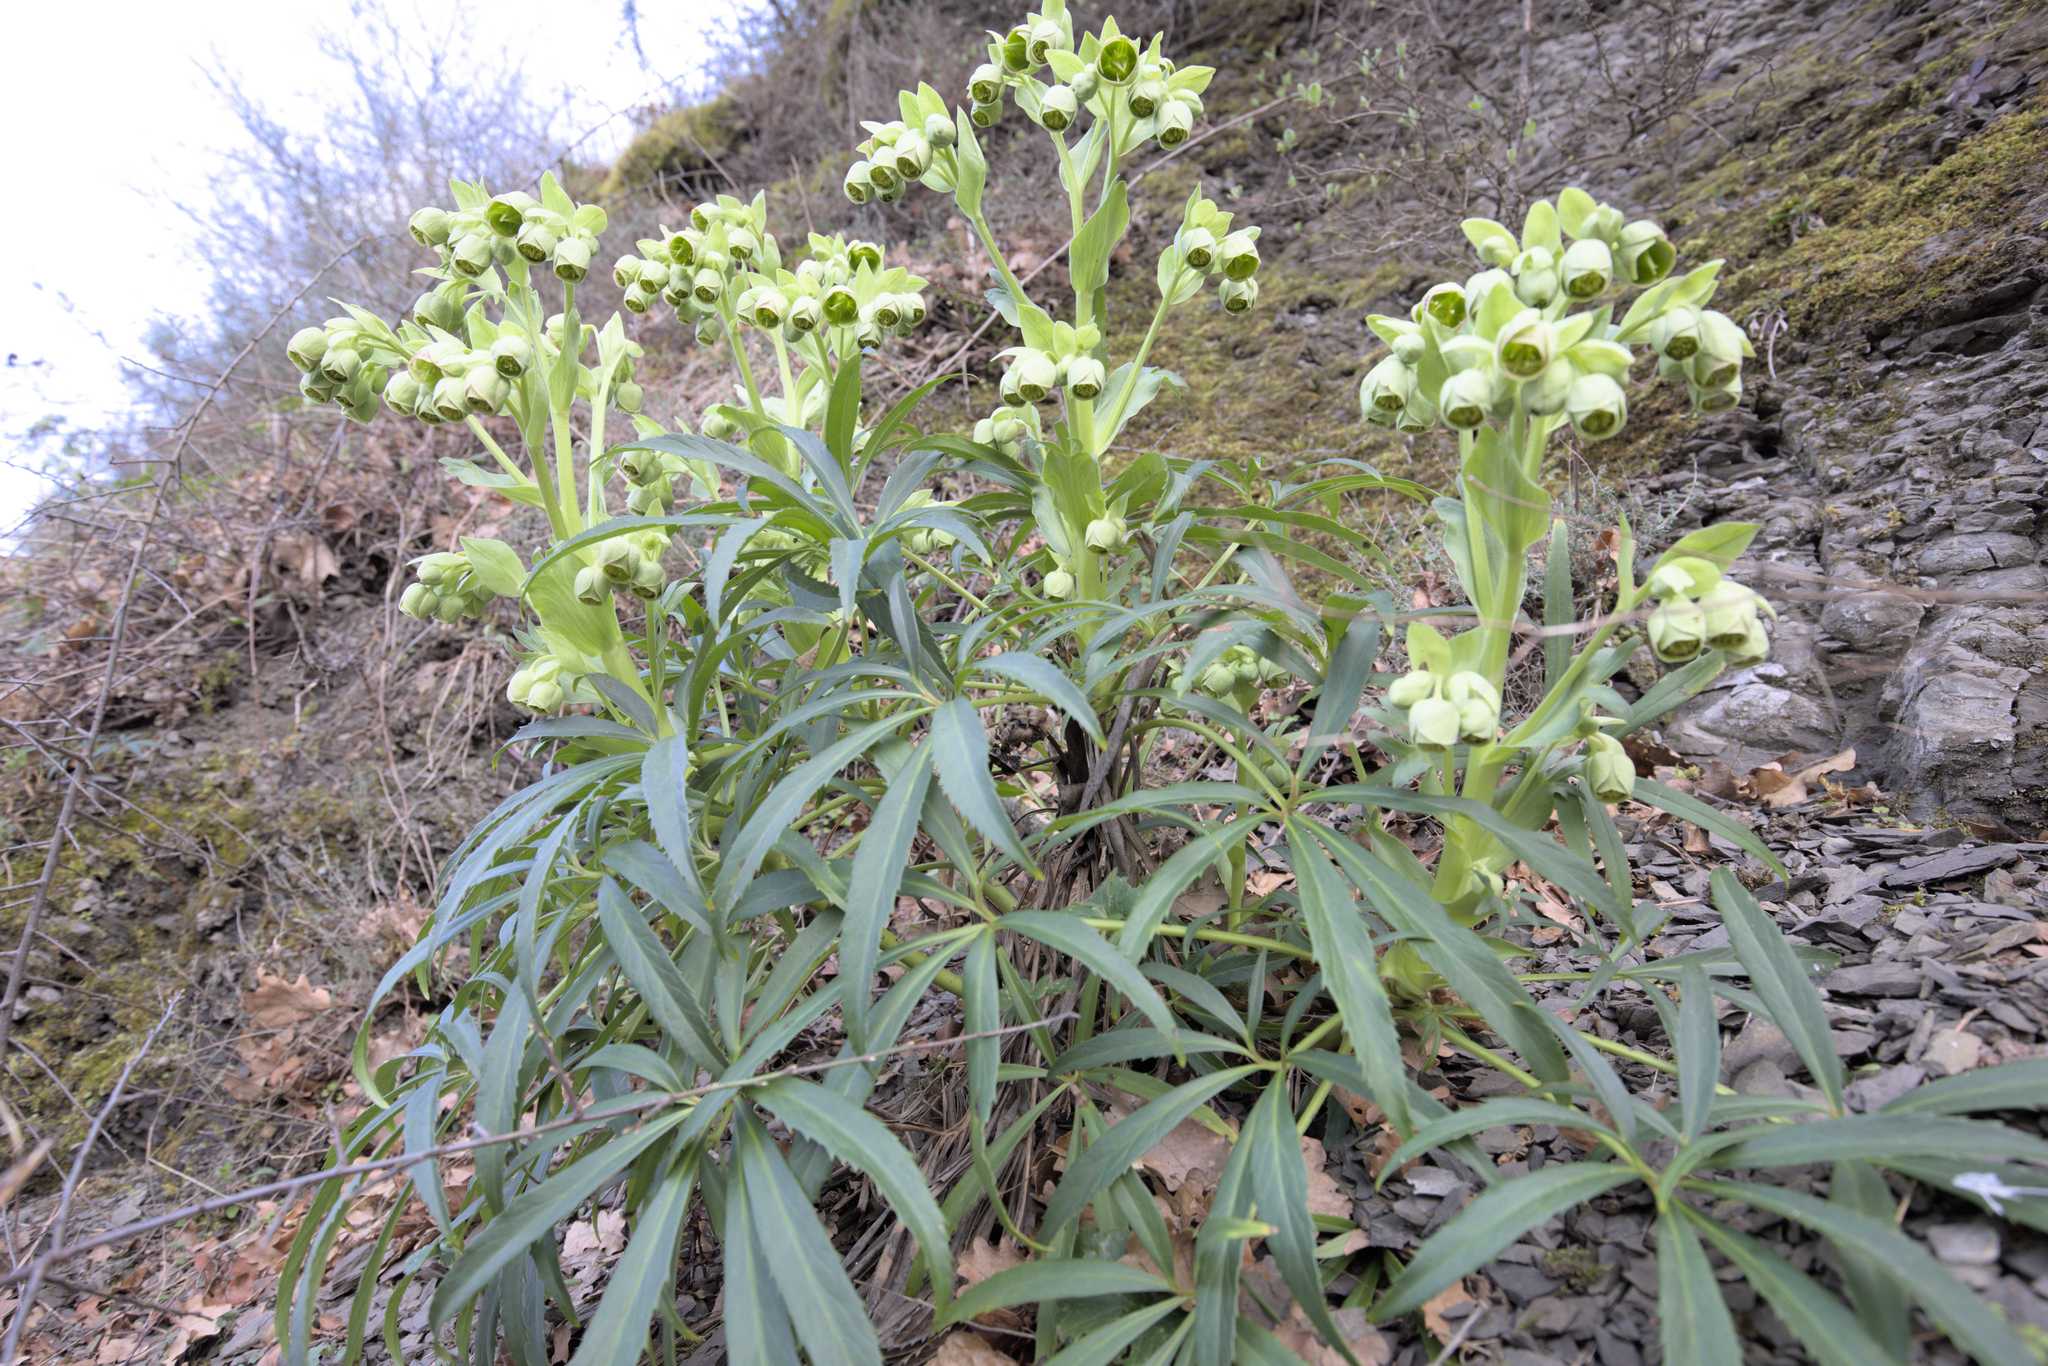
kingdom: Plantae
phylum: Tracheophyta
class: Magnoliopsida
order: Ranunculales
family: Ranunculaceae
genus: Helleborus
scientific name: Helleborus foetidus
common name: Stinking hellebore
